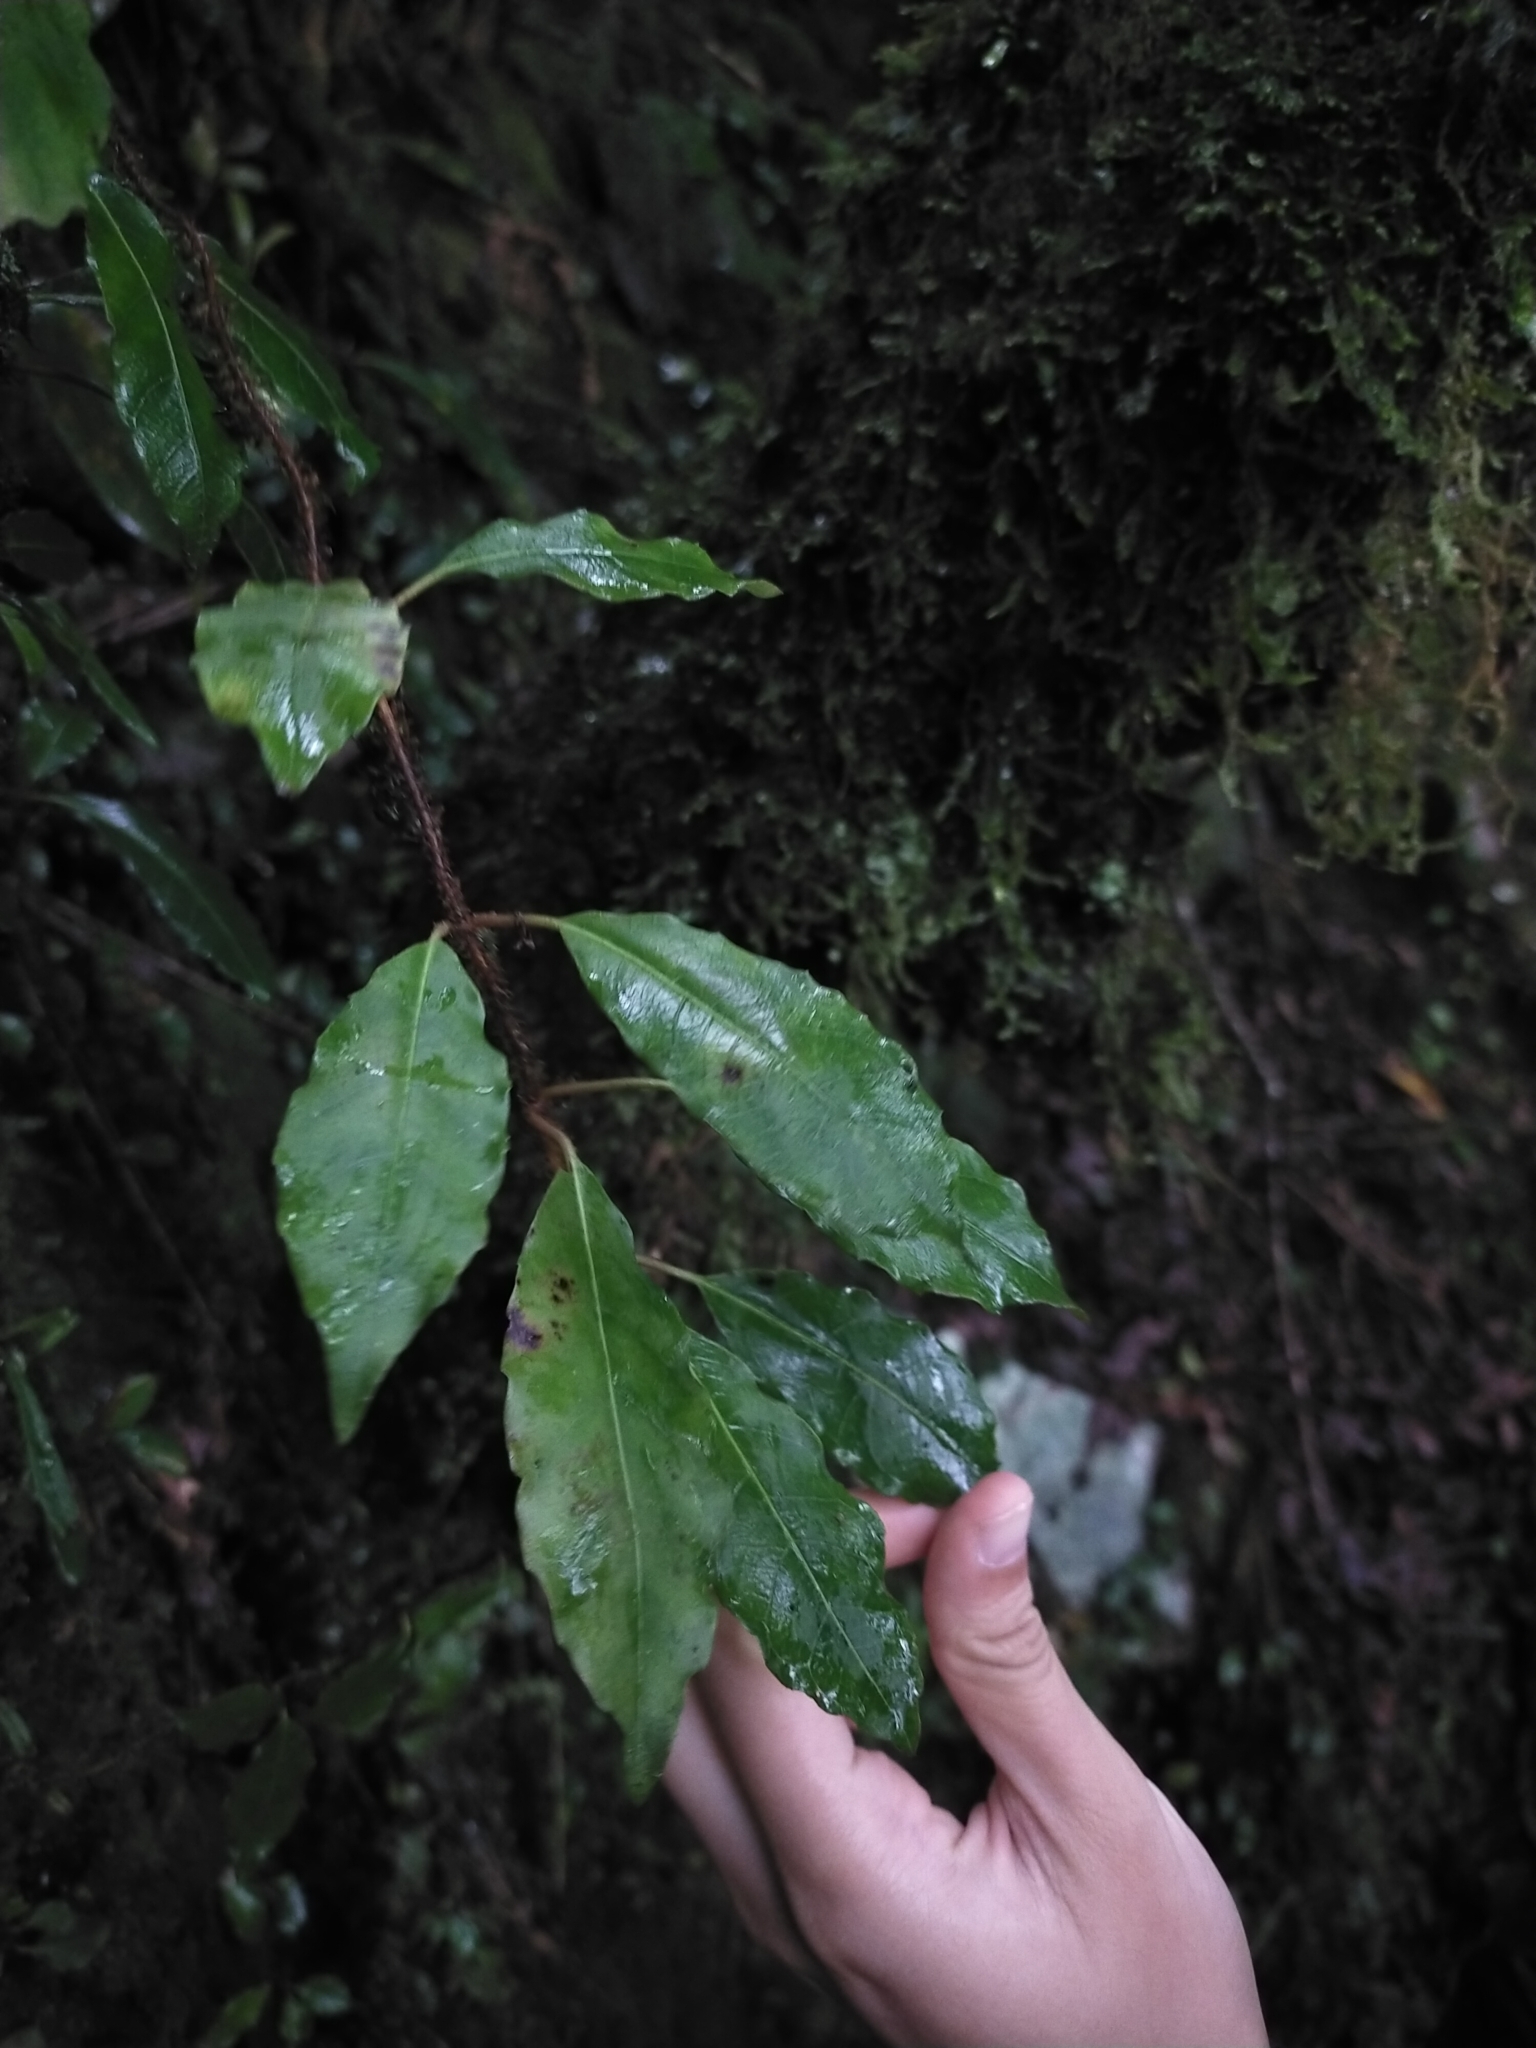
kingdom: Plantae
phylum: Tracheophyta
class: Magnoliopsida
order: Cornales
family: Hydrangeaceae
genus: Hydrangea
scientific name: Hydrangea integrifolia
